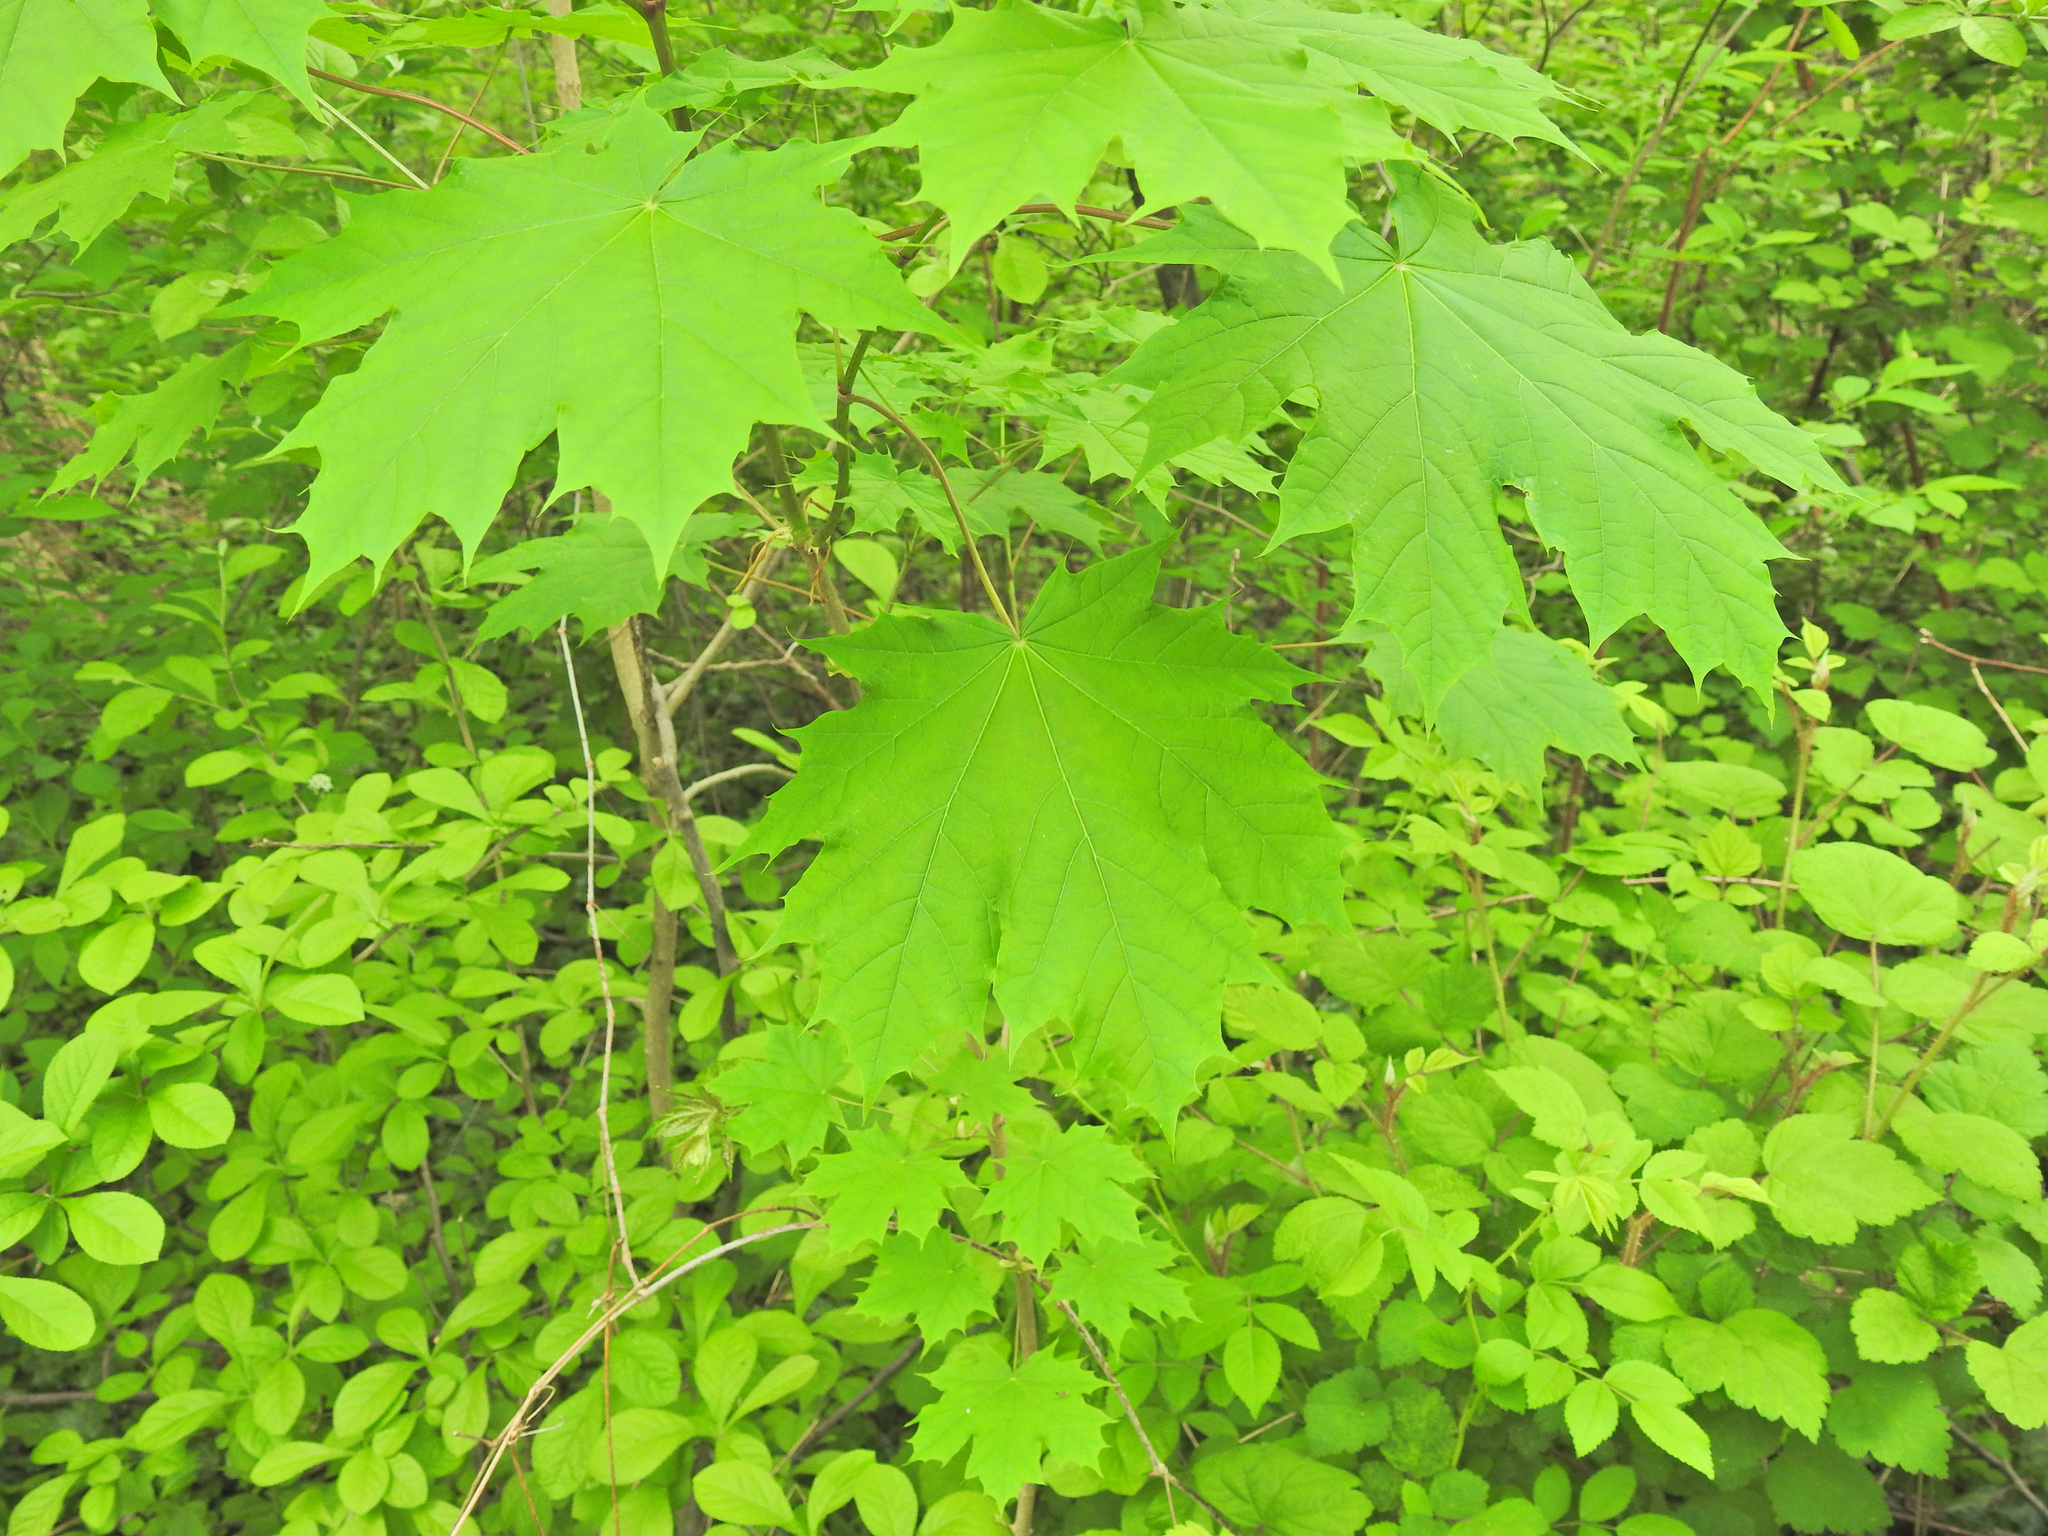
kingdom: Plantae
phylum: Tracheophyta
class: Magnoliopsida
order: Sapindales
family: Sapindaceae
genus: Acer
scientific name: Acer platanoides
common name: Norway maple
